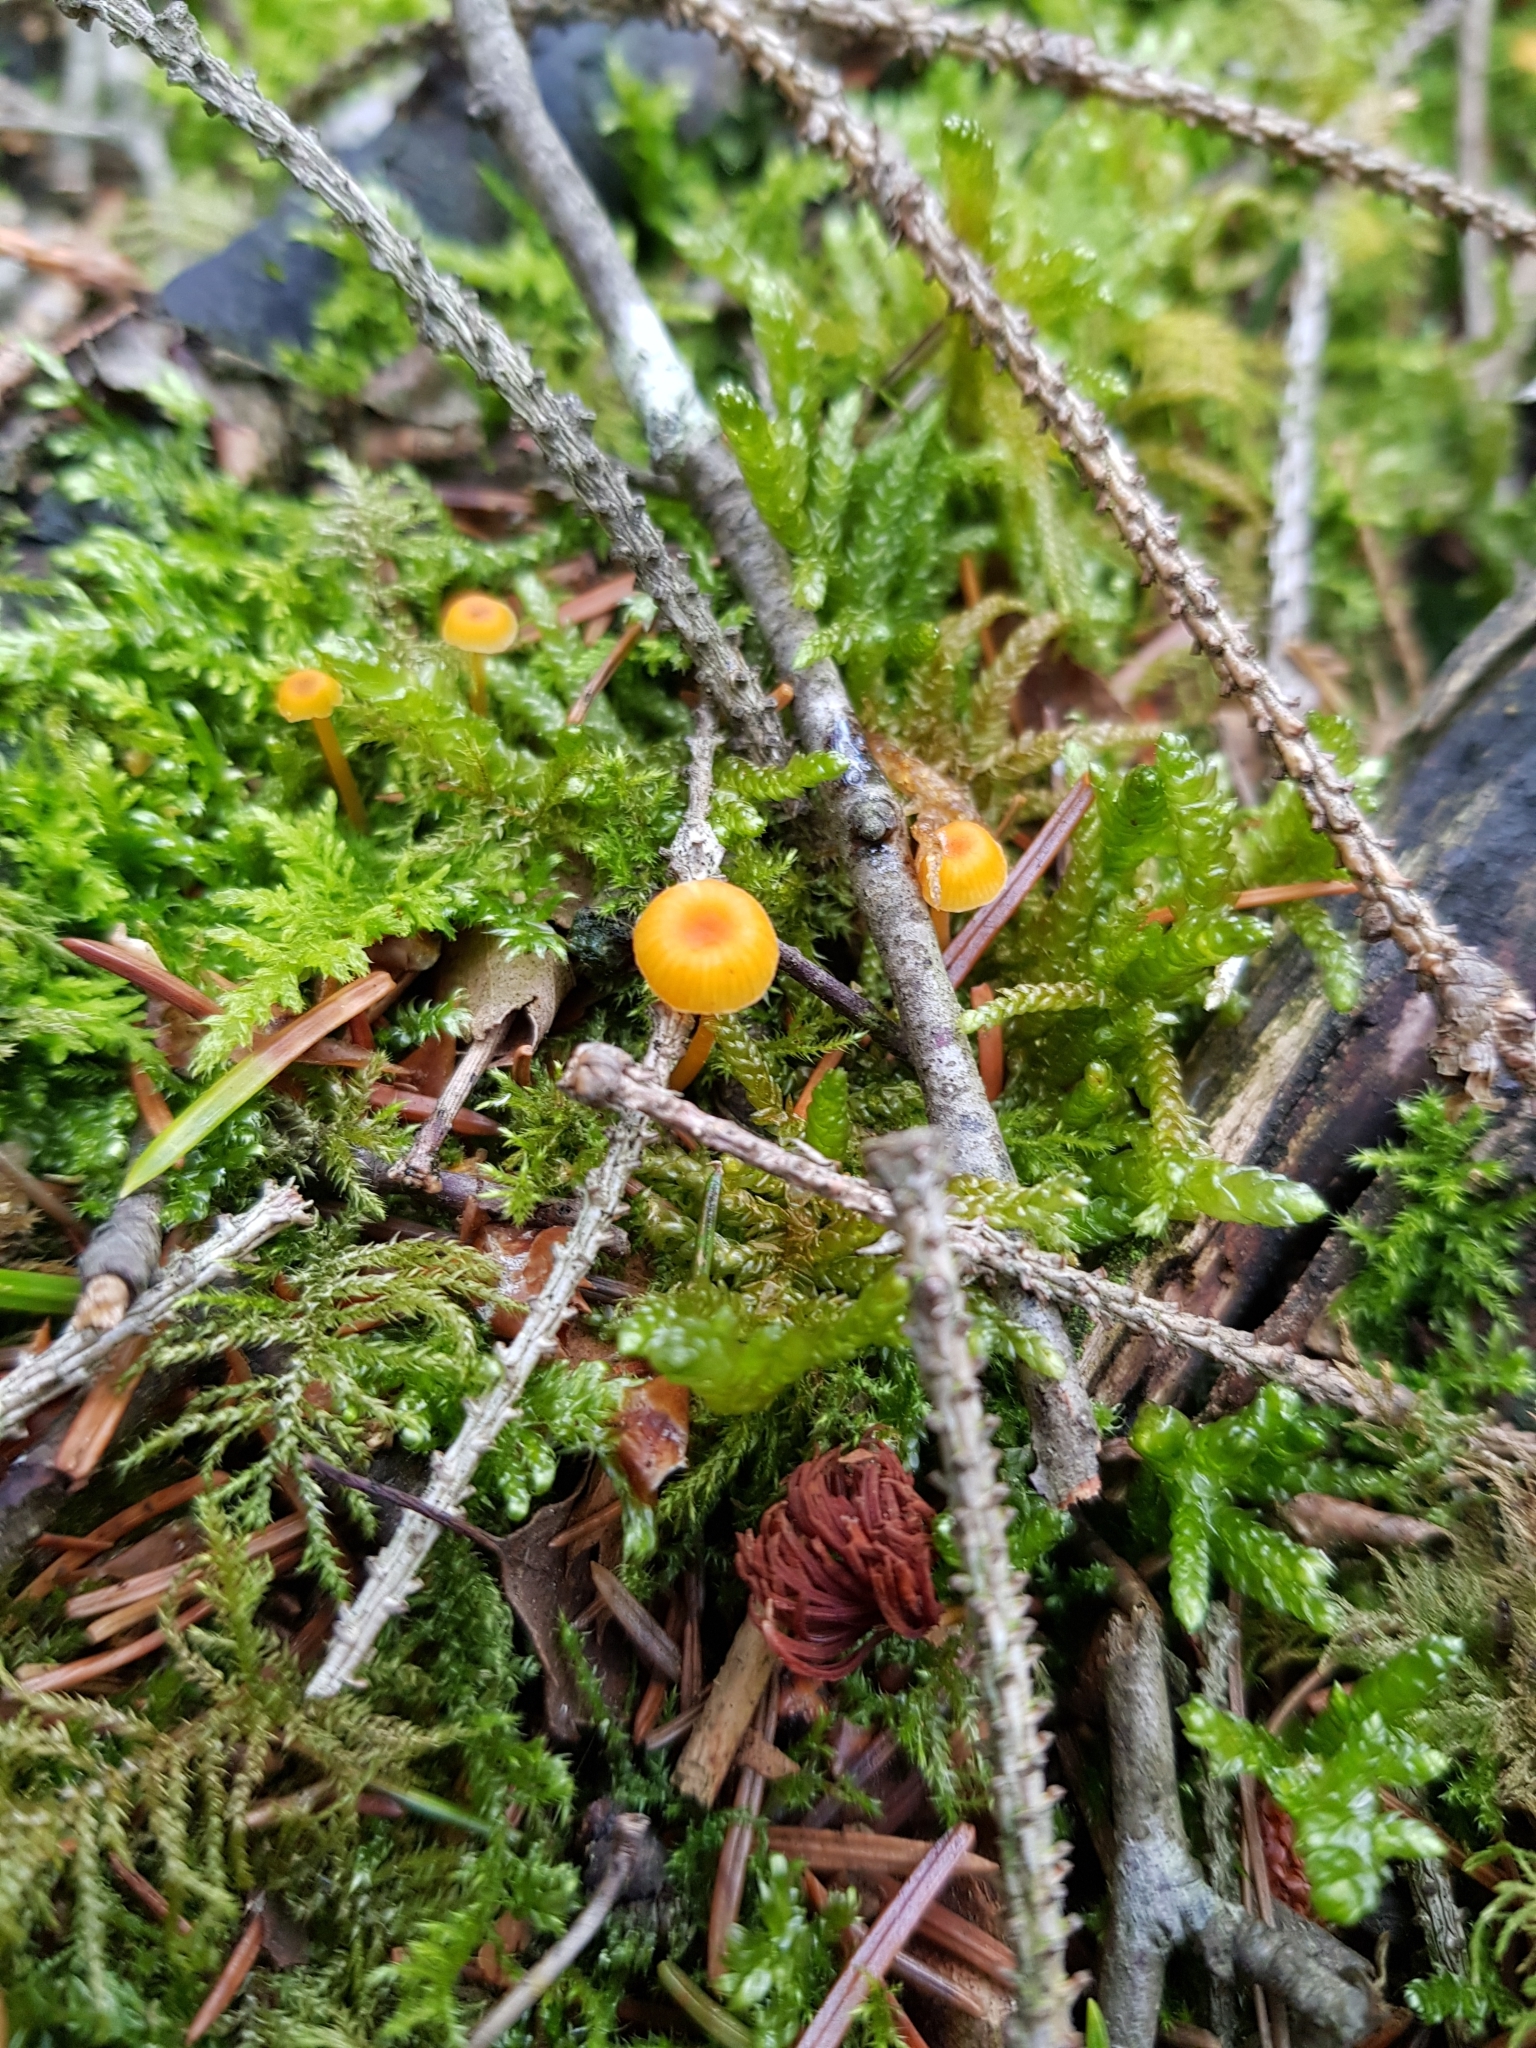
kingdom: Fungi
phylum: Basidiomycota
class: Agaricomycetes
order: Hymenochaetales
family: Rickenellaceae
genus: Rickenella
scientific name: Rickenella fibula
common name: Orange mosscap
